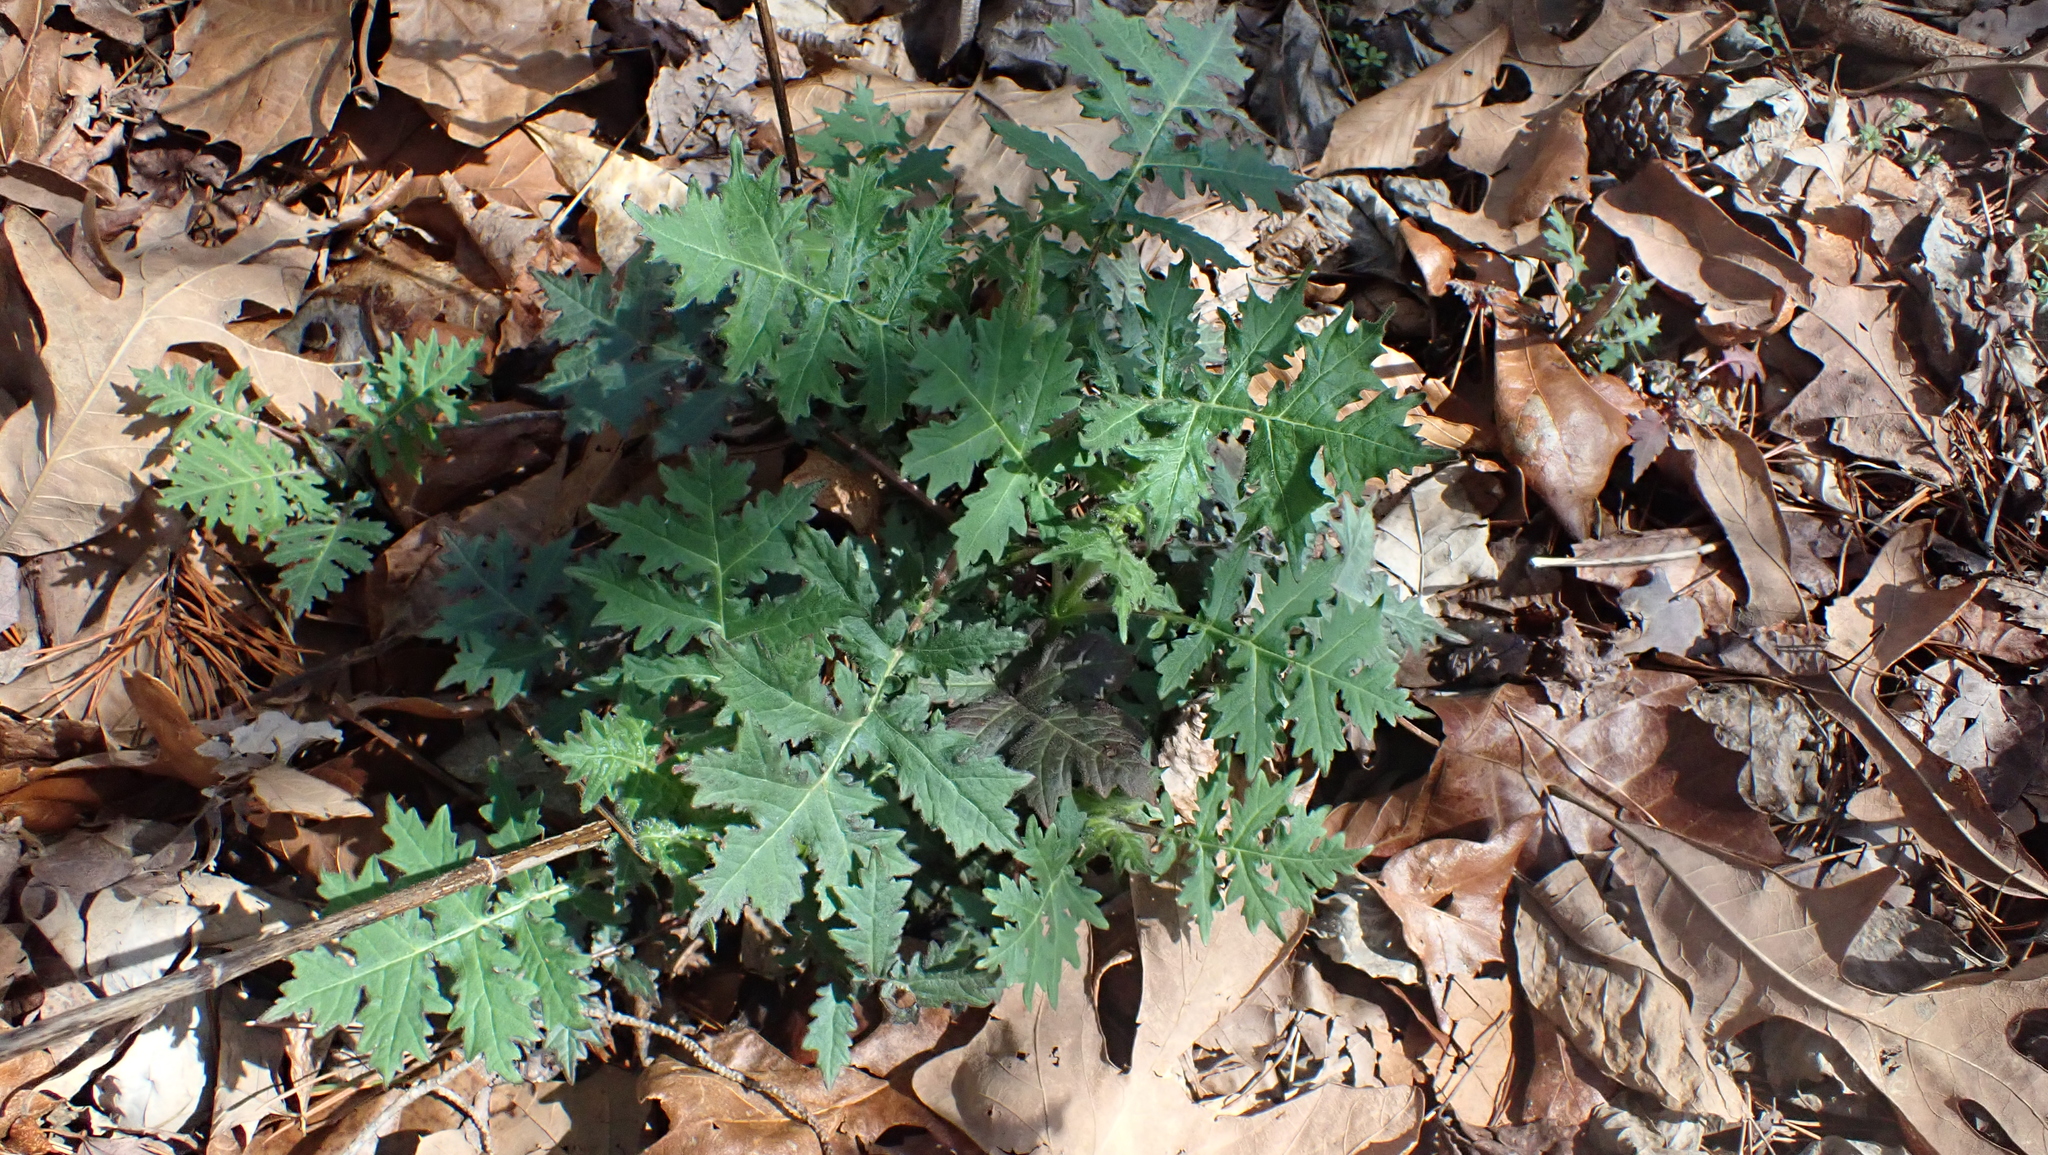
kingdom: Plantae
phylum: Tracheophyta
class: Magnoliopsida
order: Asterales
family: Asteraceae
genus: Polymnia
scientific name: Polymnia canadensis
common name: Pale-flowered leafcup
